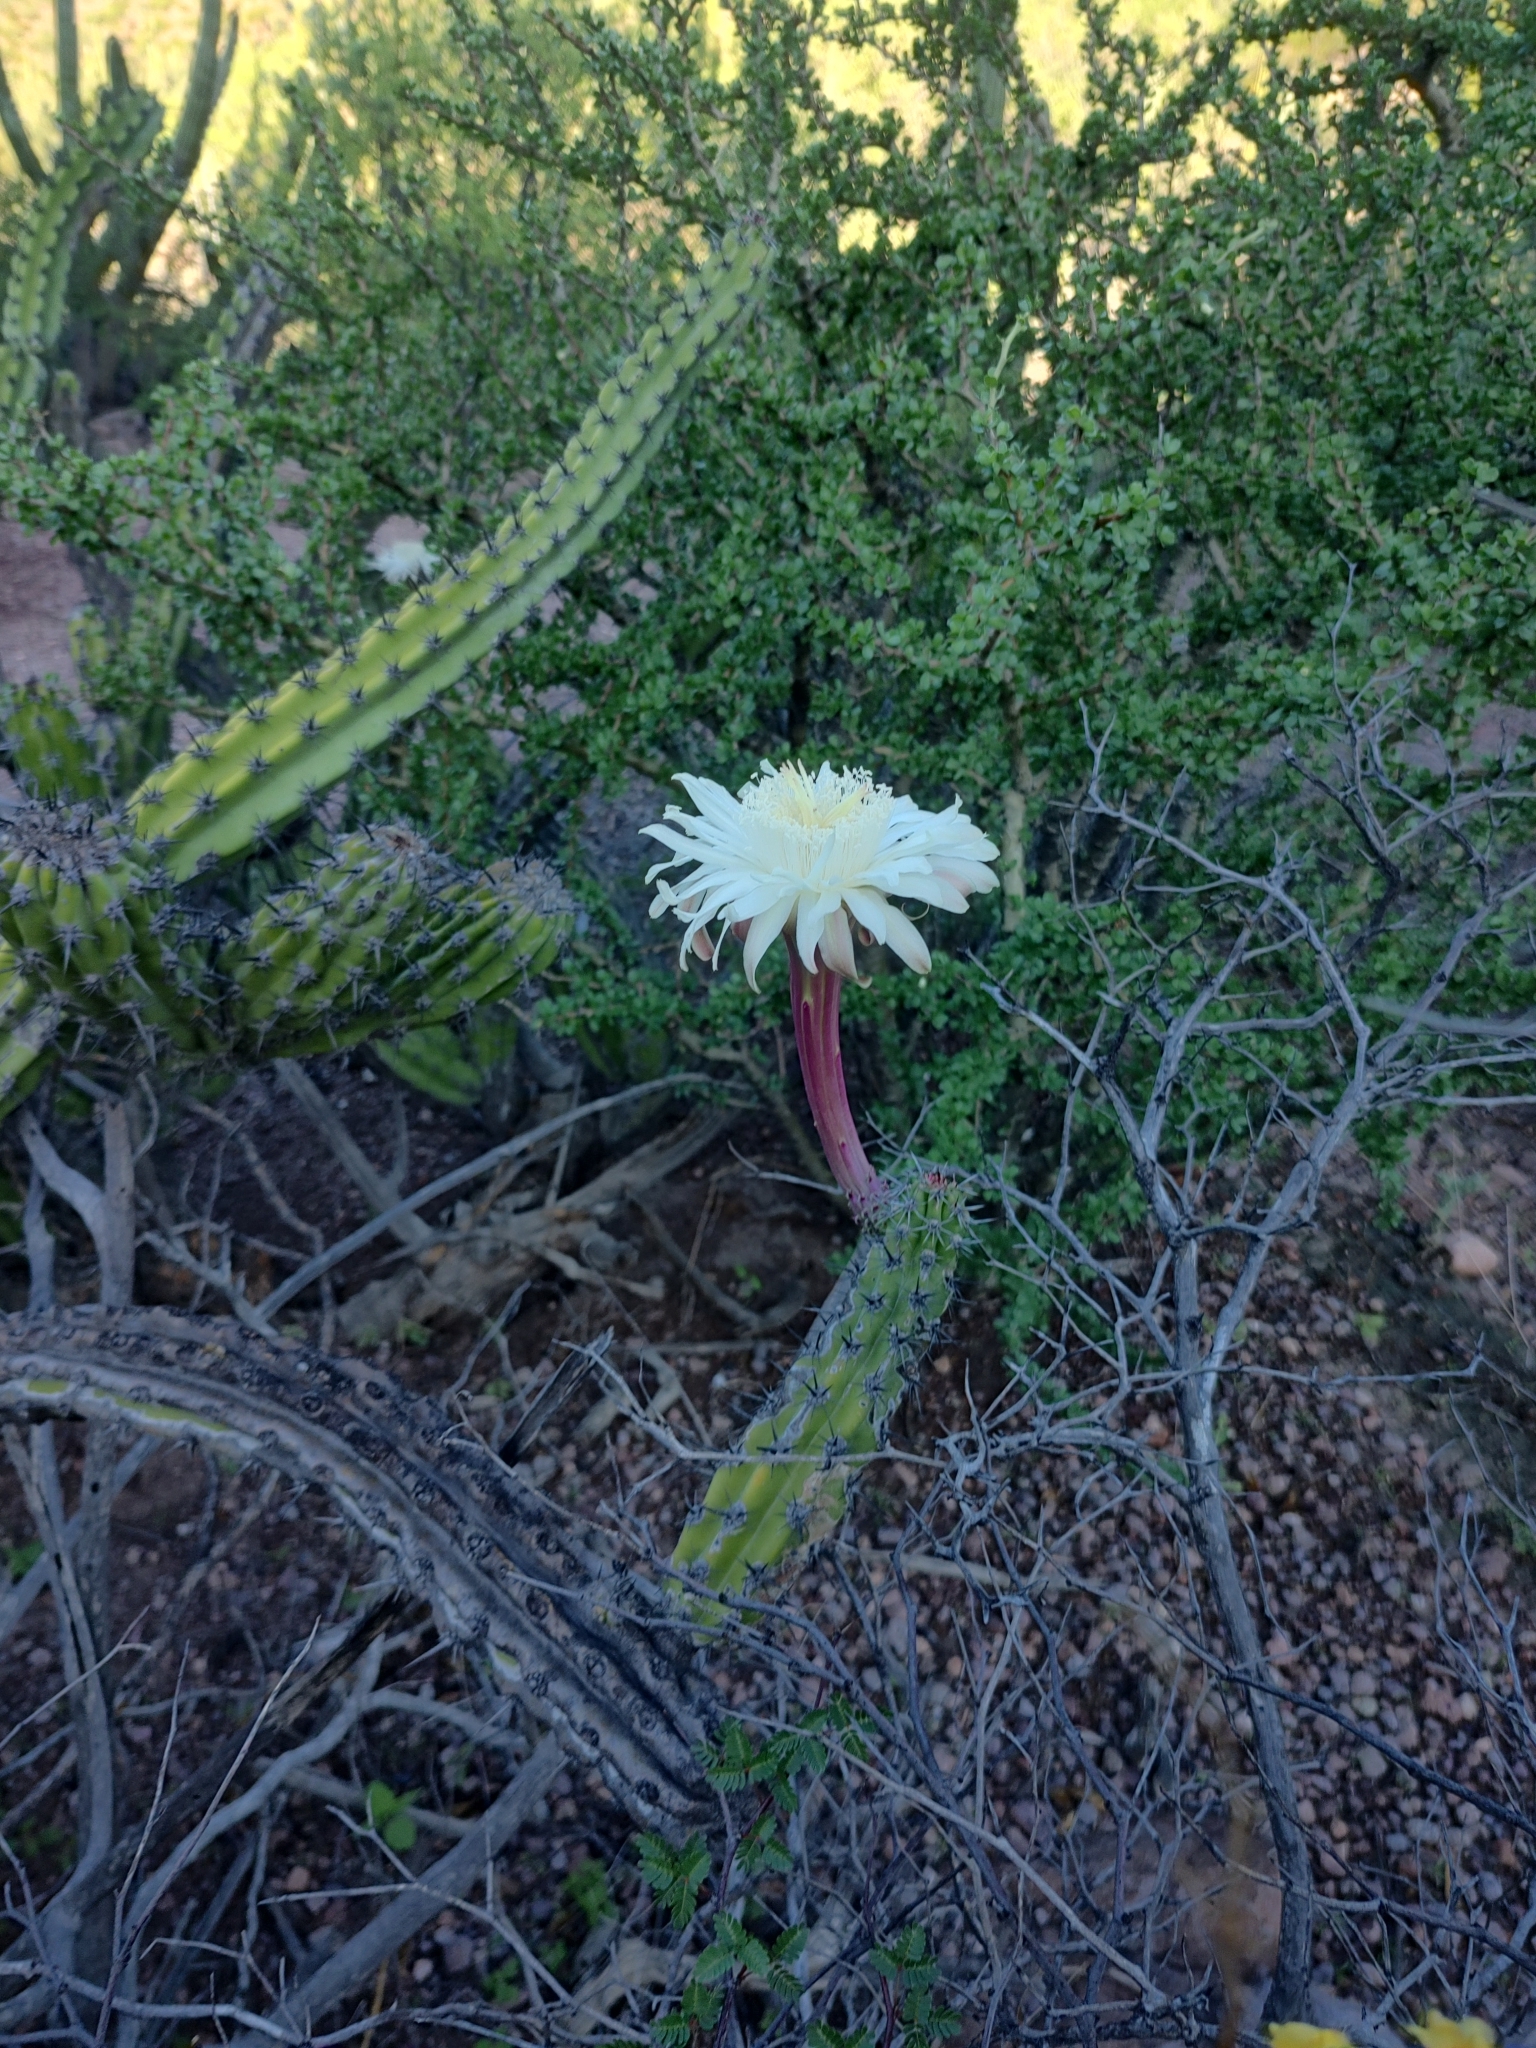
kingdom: Plantae
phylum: Tracheophyta
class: Magnoliopsida
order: Caryophyllales
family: Cactaceae
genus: Stenocereus
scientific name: Stenocereus gummosus
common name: Dagger cactus
